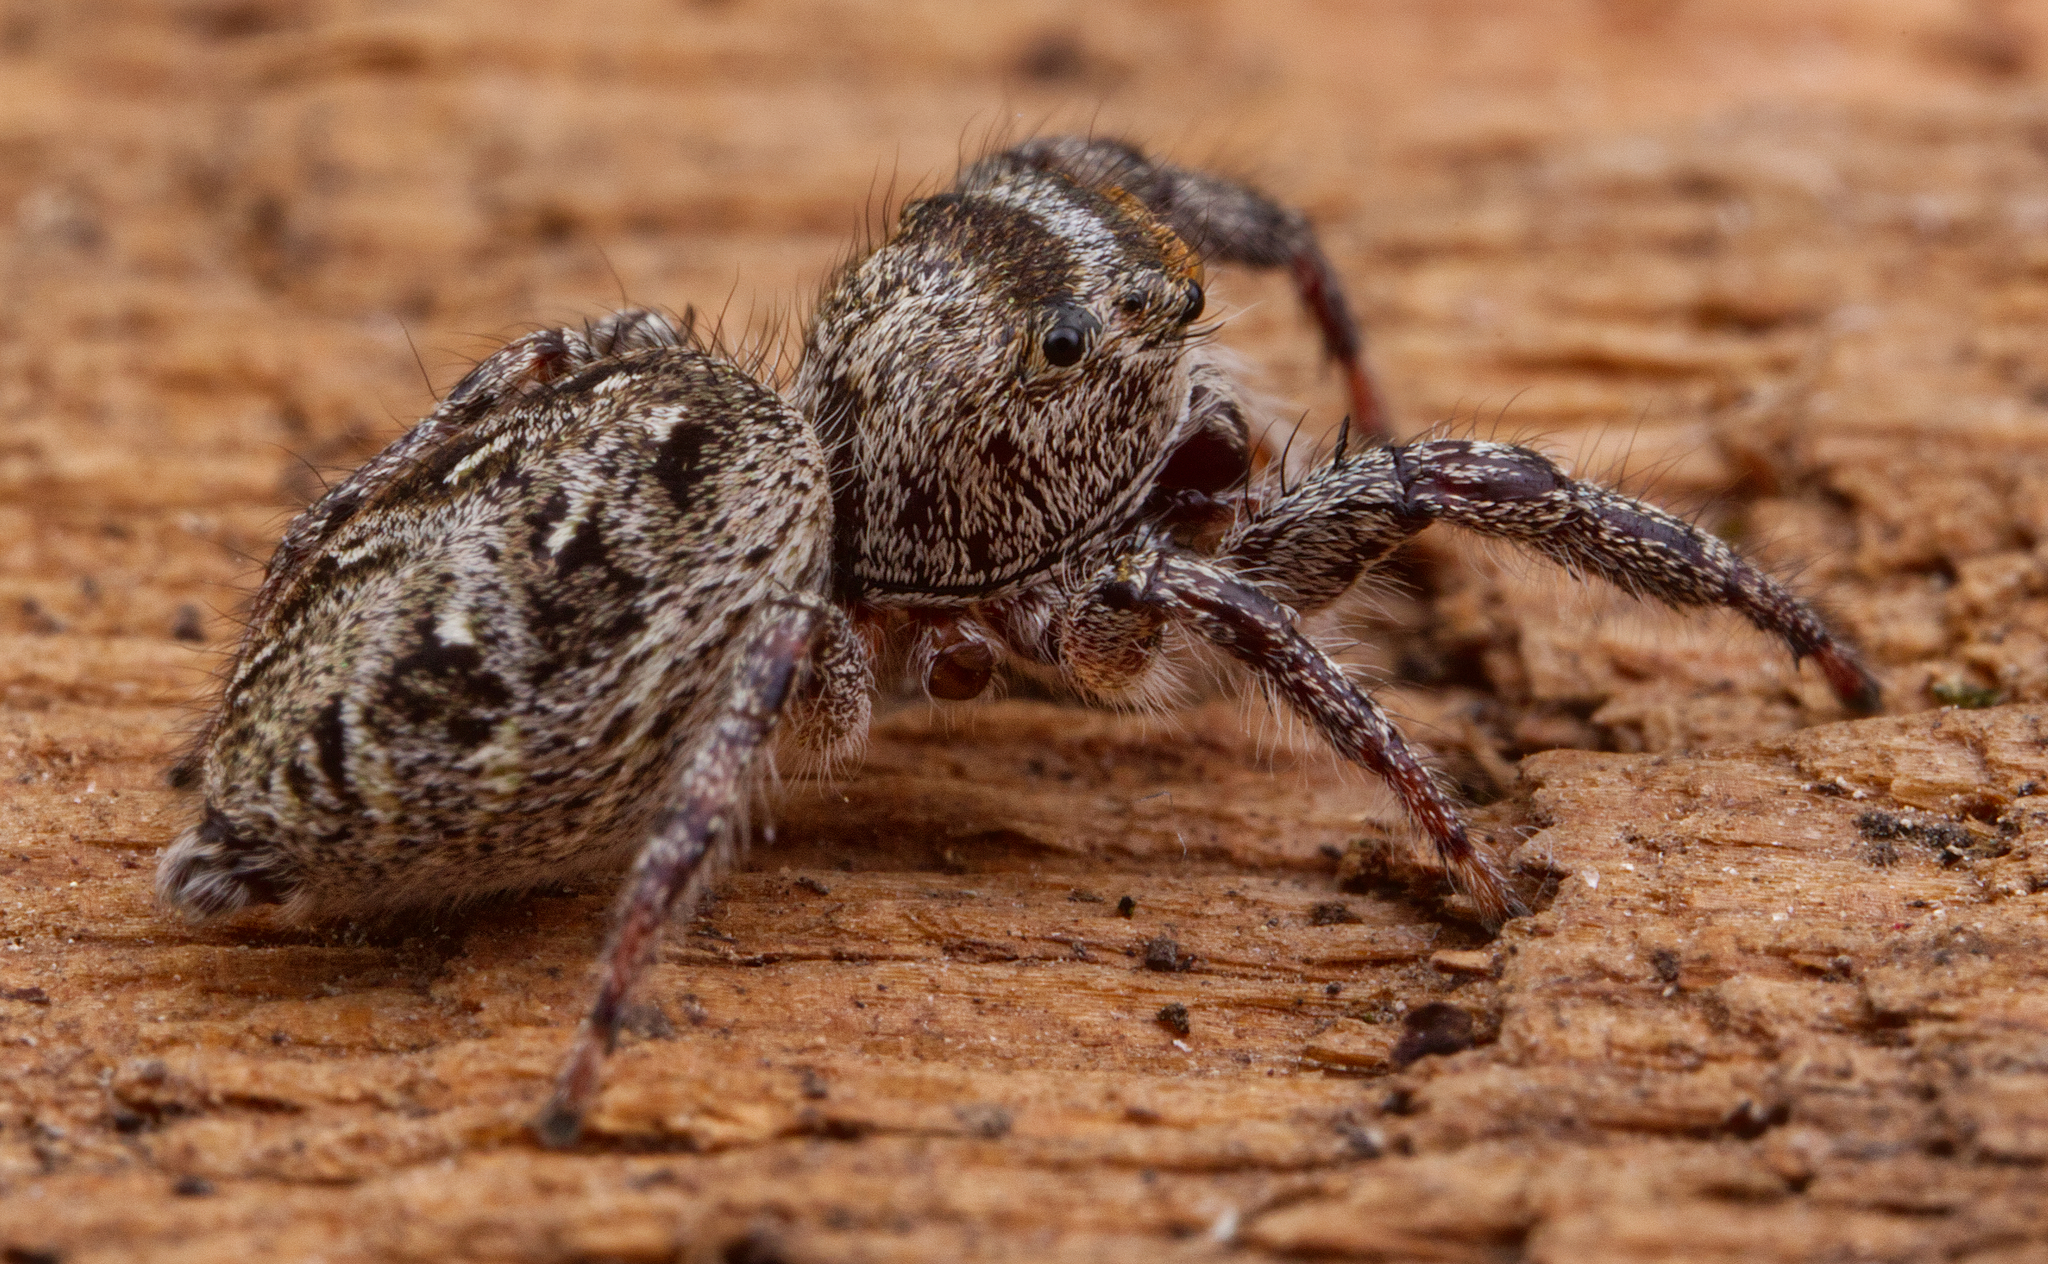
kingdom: Animalia
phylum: Arthropoda
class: Arachnida
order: Araneae
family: Salticidae
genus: Eris
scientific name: Eris militaris
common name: Bronze jumper
